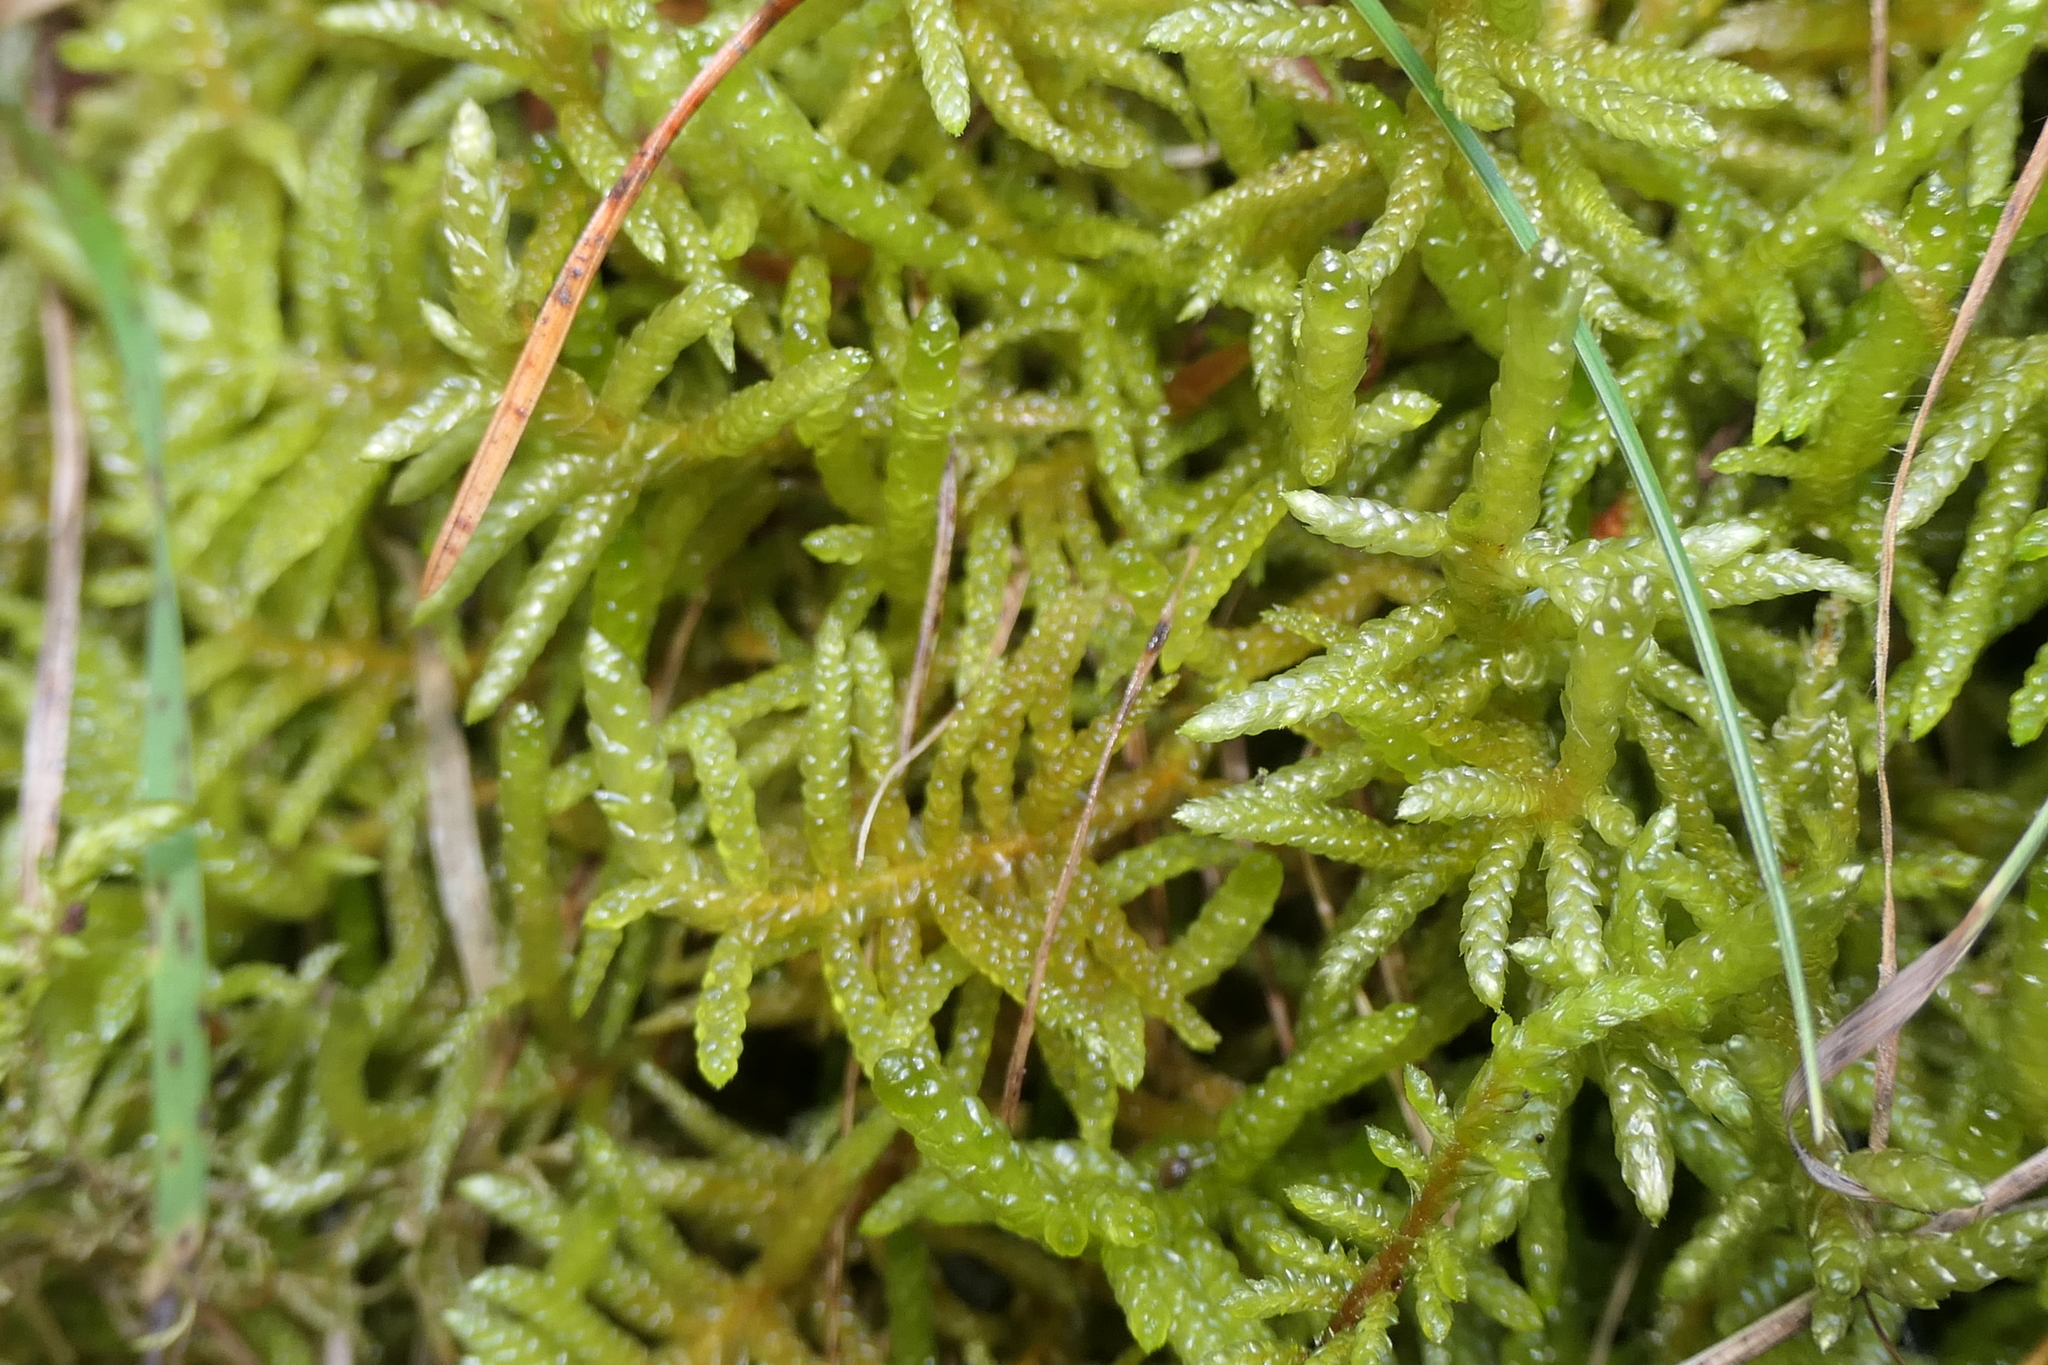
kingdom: Plantae
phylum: Bryophyta
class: Bryopsida
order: Hypnales
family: Brachytheciaceae
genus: Pseudoscleropodium
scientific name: Pseudoscleropodium purum
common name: Neat feather-moss
